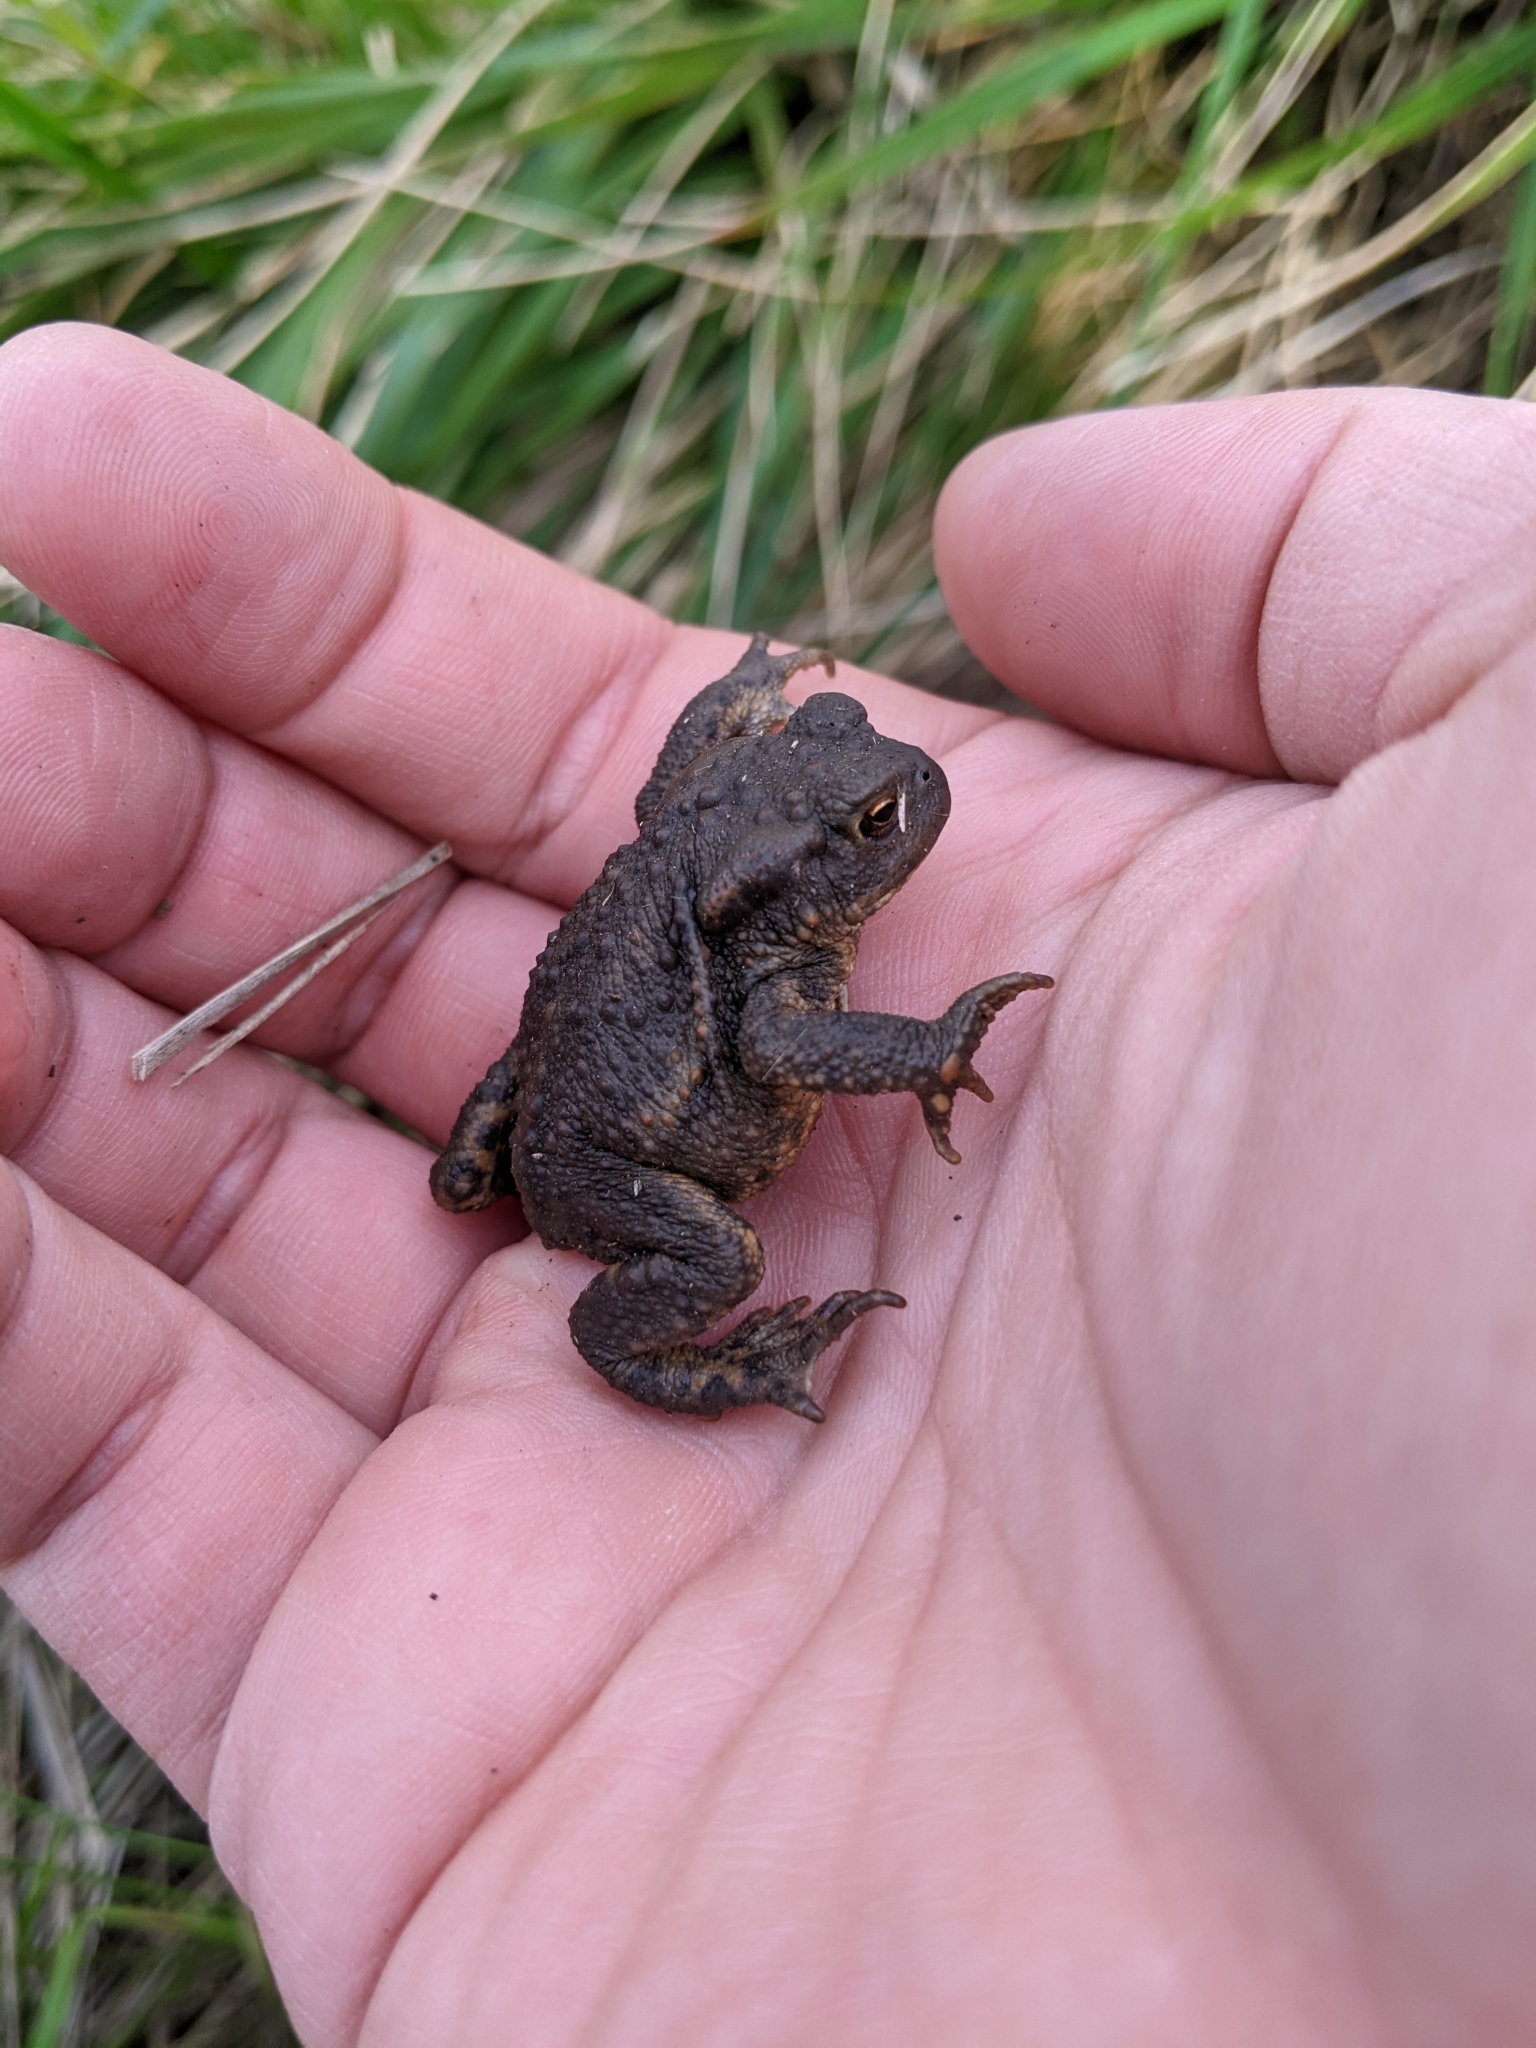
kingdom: Animalia
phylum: Chordata
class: Amphibia
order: Anura
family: Bufonidae
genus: Bufo
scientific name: Bufo bufo
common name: Common toad
